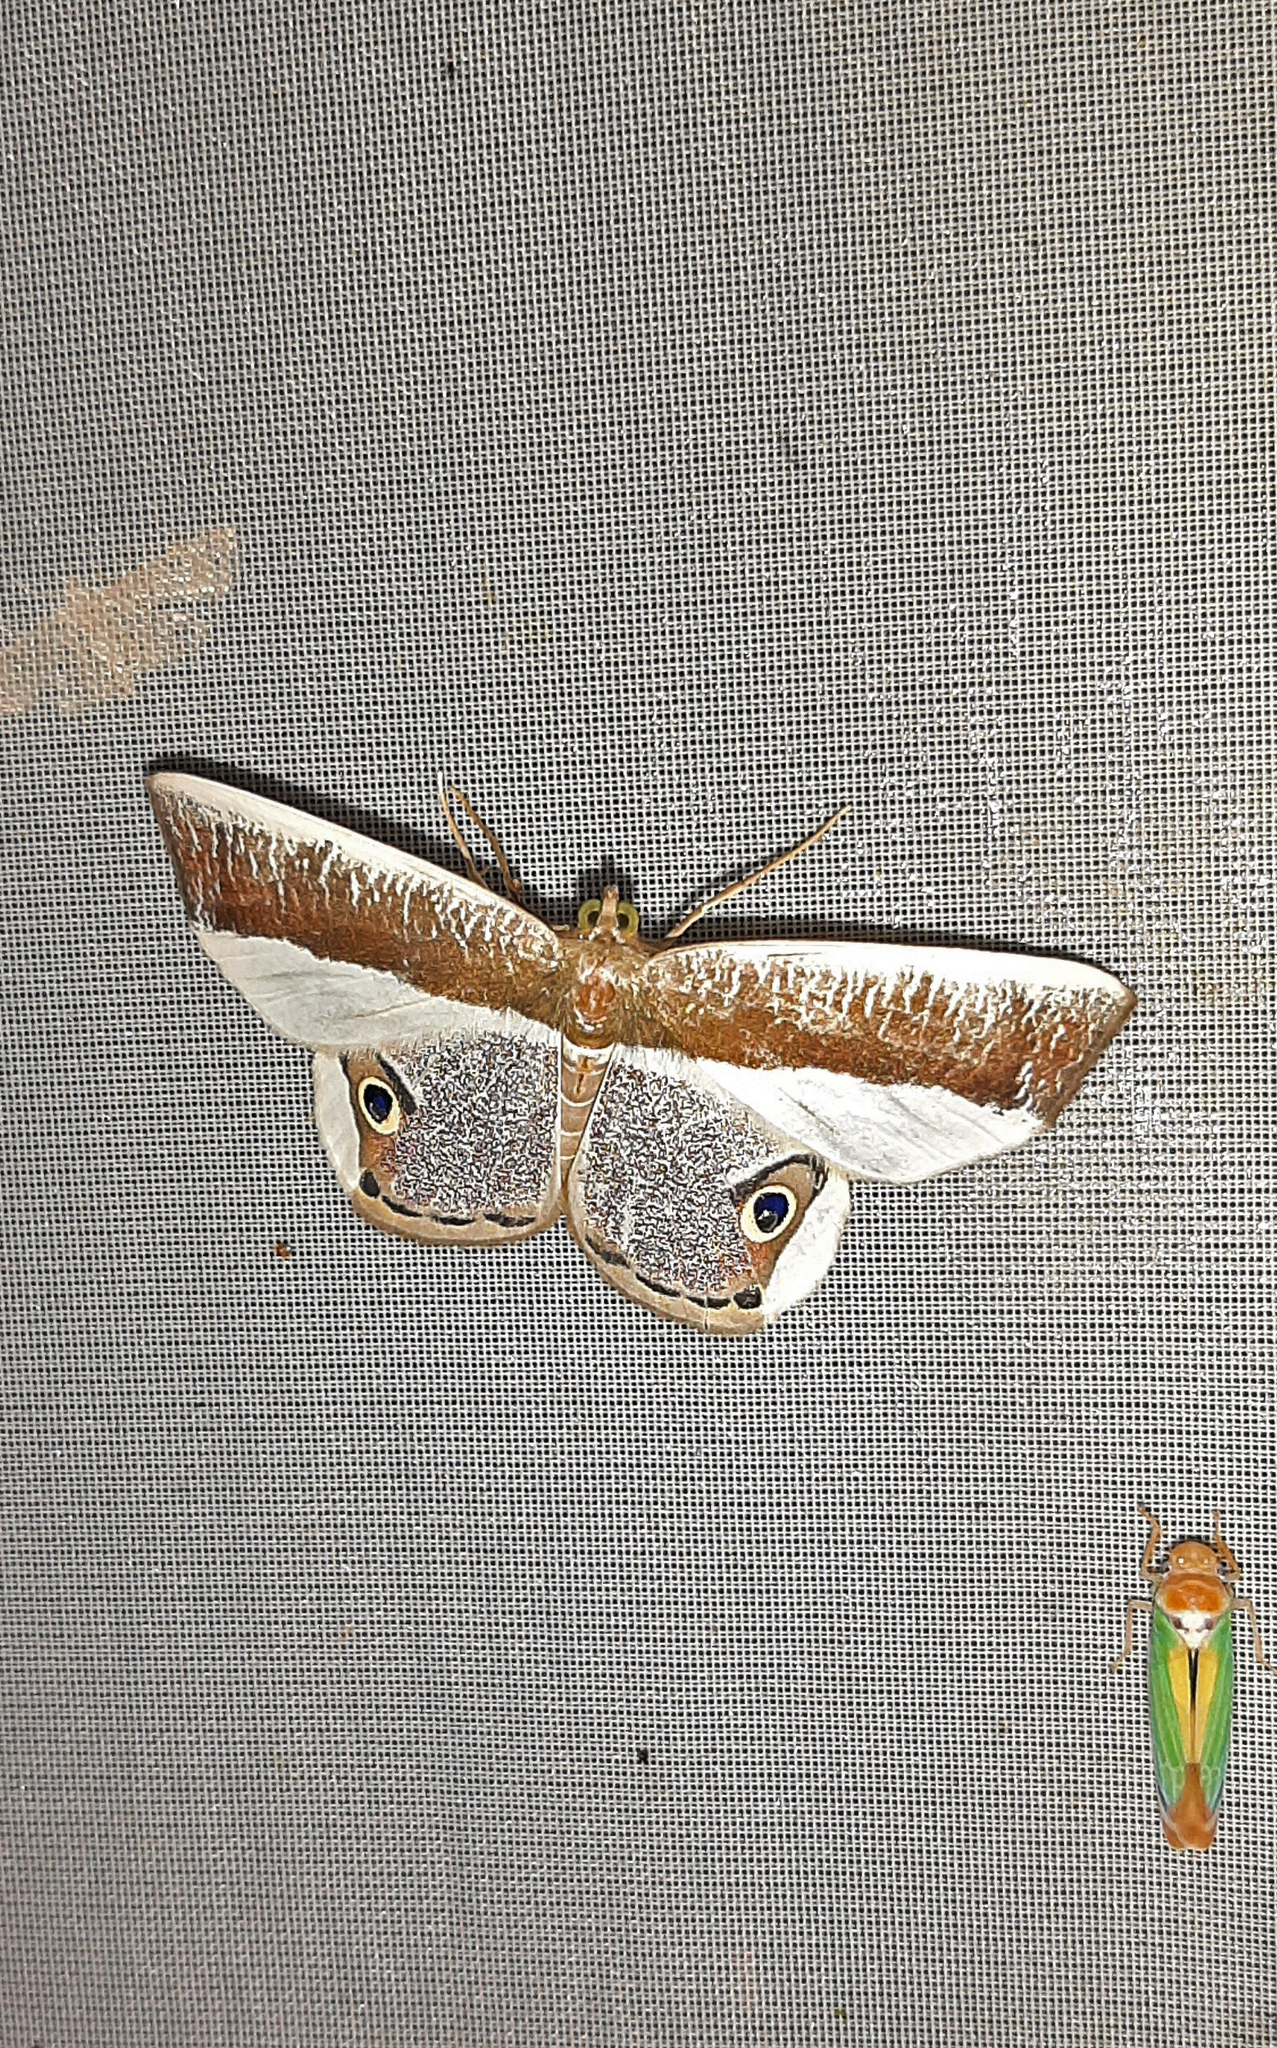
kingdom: Animalia
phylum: Arthropoda
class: Insecta
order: Lepidoptera
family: Geometridae
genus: Opisthoxia
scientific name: Opisthoxia laticlava
